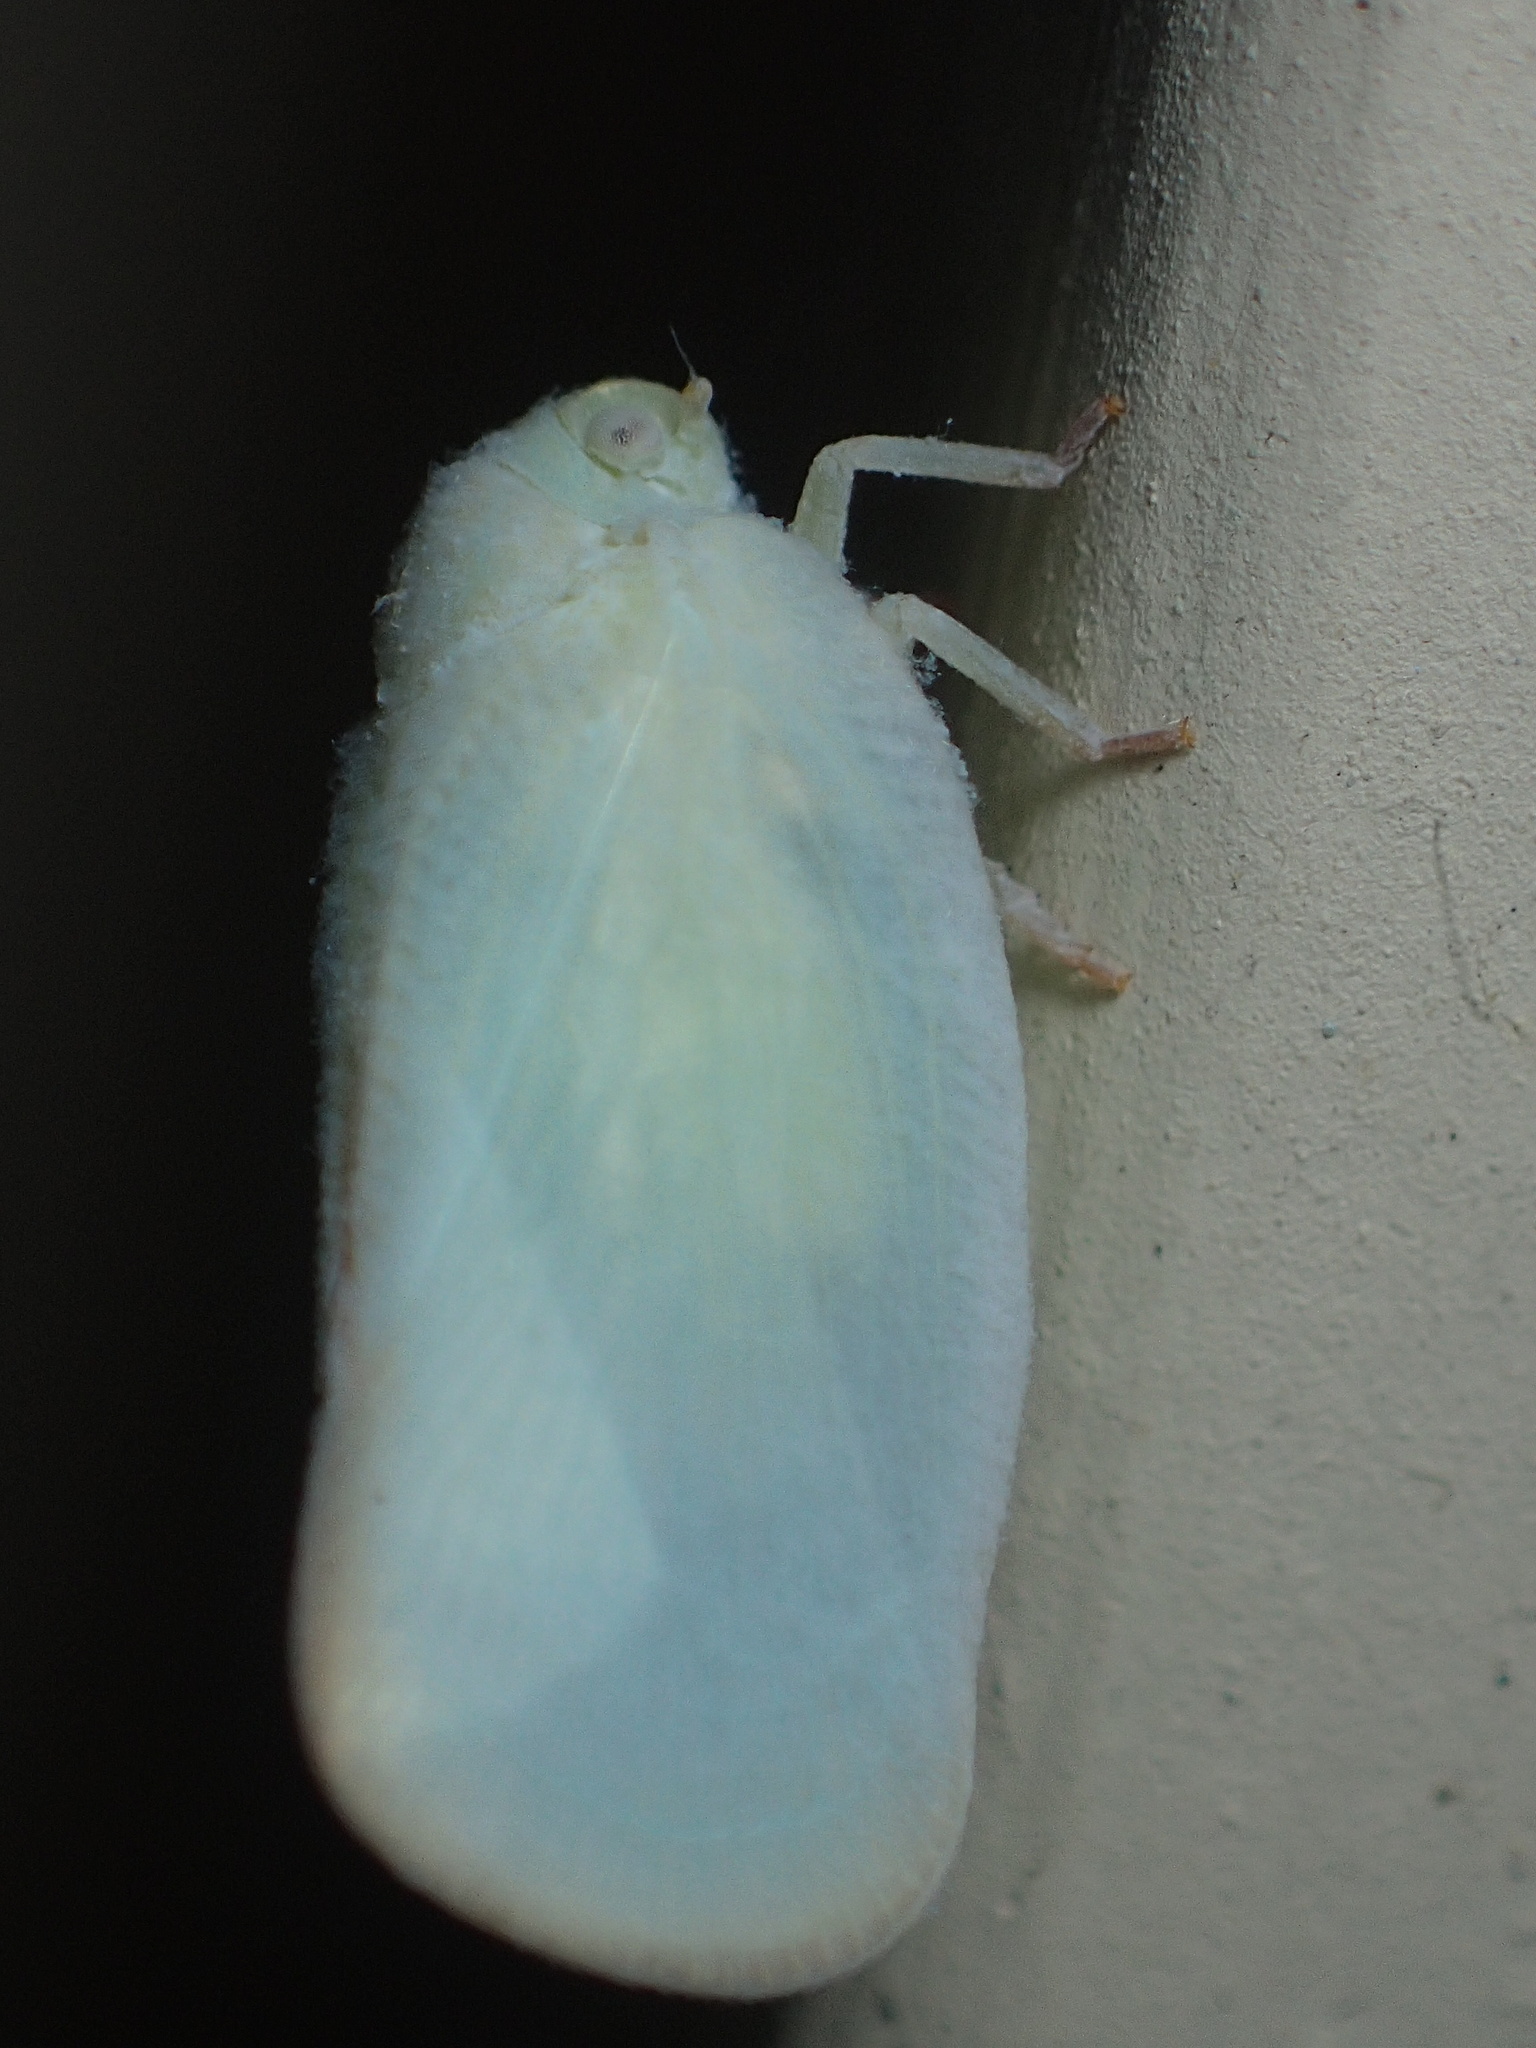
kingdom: Animalia
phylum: Arthropoda
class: Insecta
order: Hemiptera
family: Flatidae
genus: Ormenoides
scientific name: Ormenoides venusta
